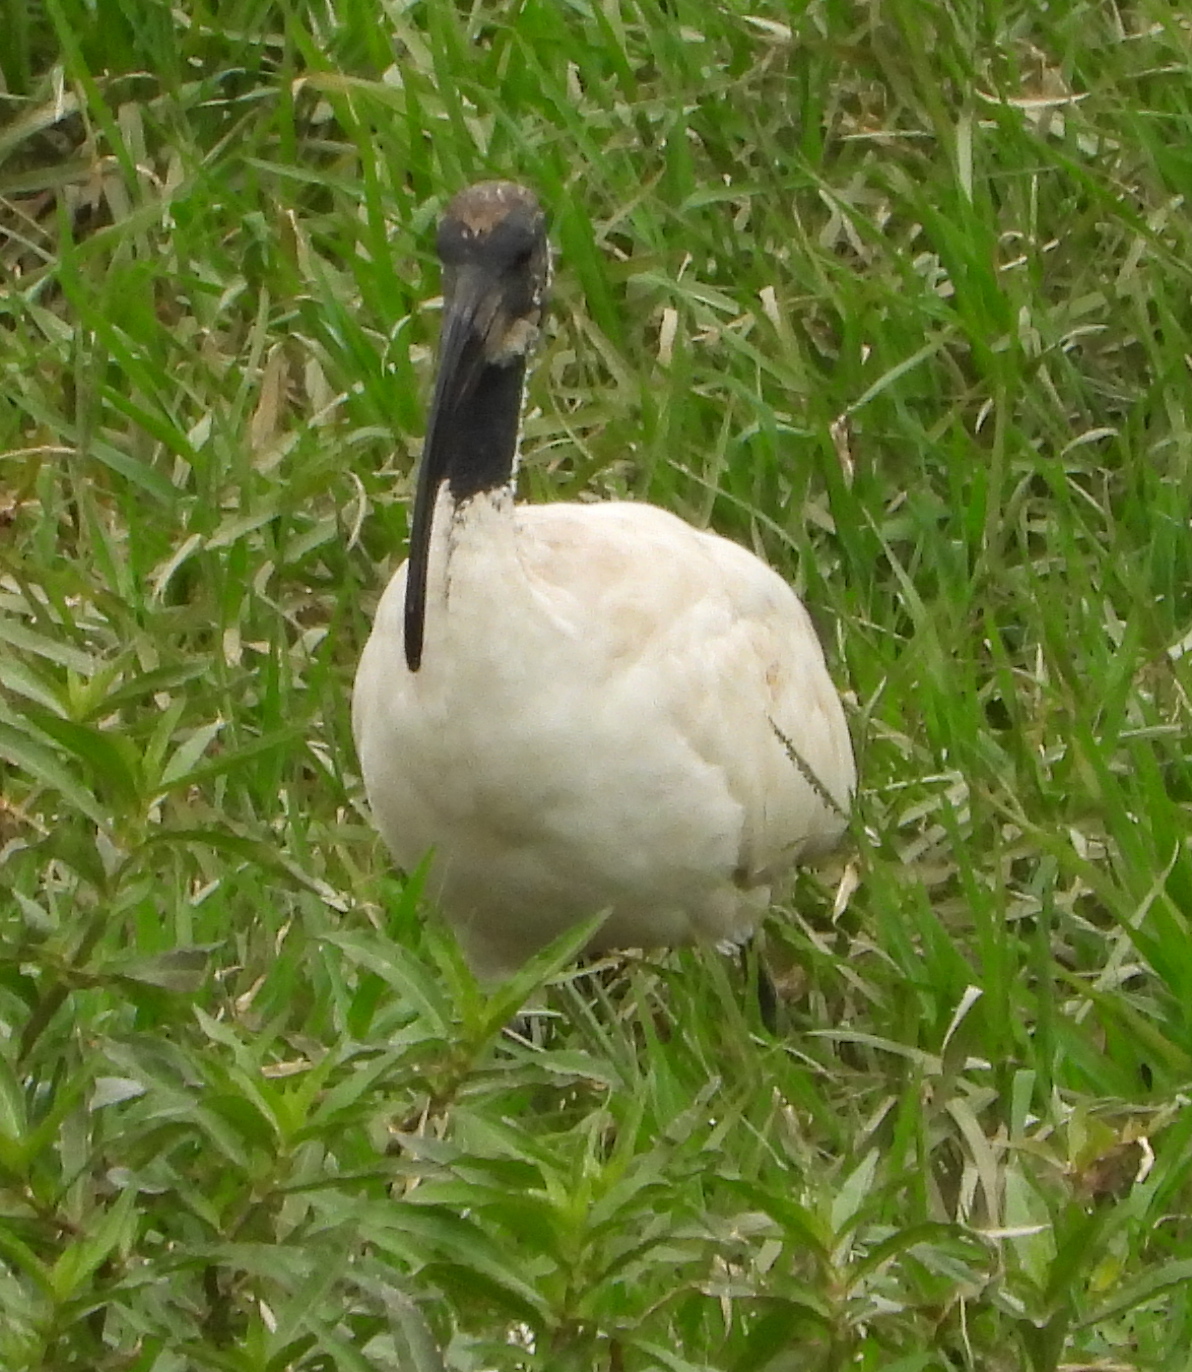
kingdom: Animalia
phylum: Chordata
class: Aves
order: Pelecaniformes
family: Threskiornithidae
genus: Threskiornis
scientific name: Threskiornis aethiopicus
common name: Sacred ibis
